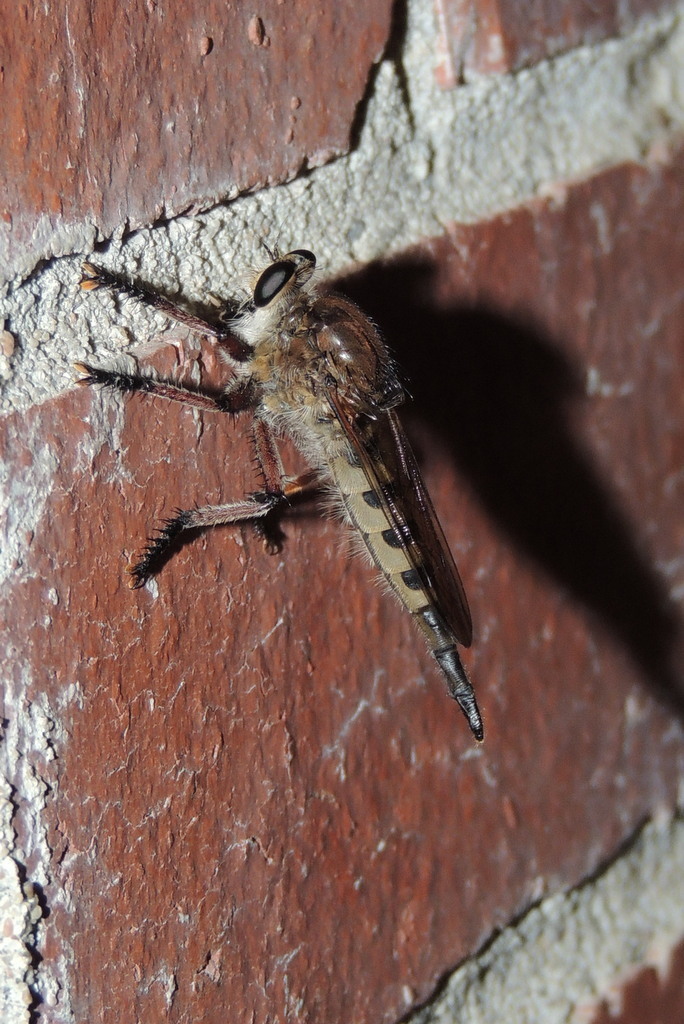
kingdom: Animalia
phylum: Arthropoda
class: Insecta
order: Diptera
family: Asilidae
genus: Promachus
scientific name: Promachus hinei
